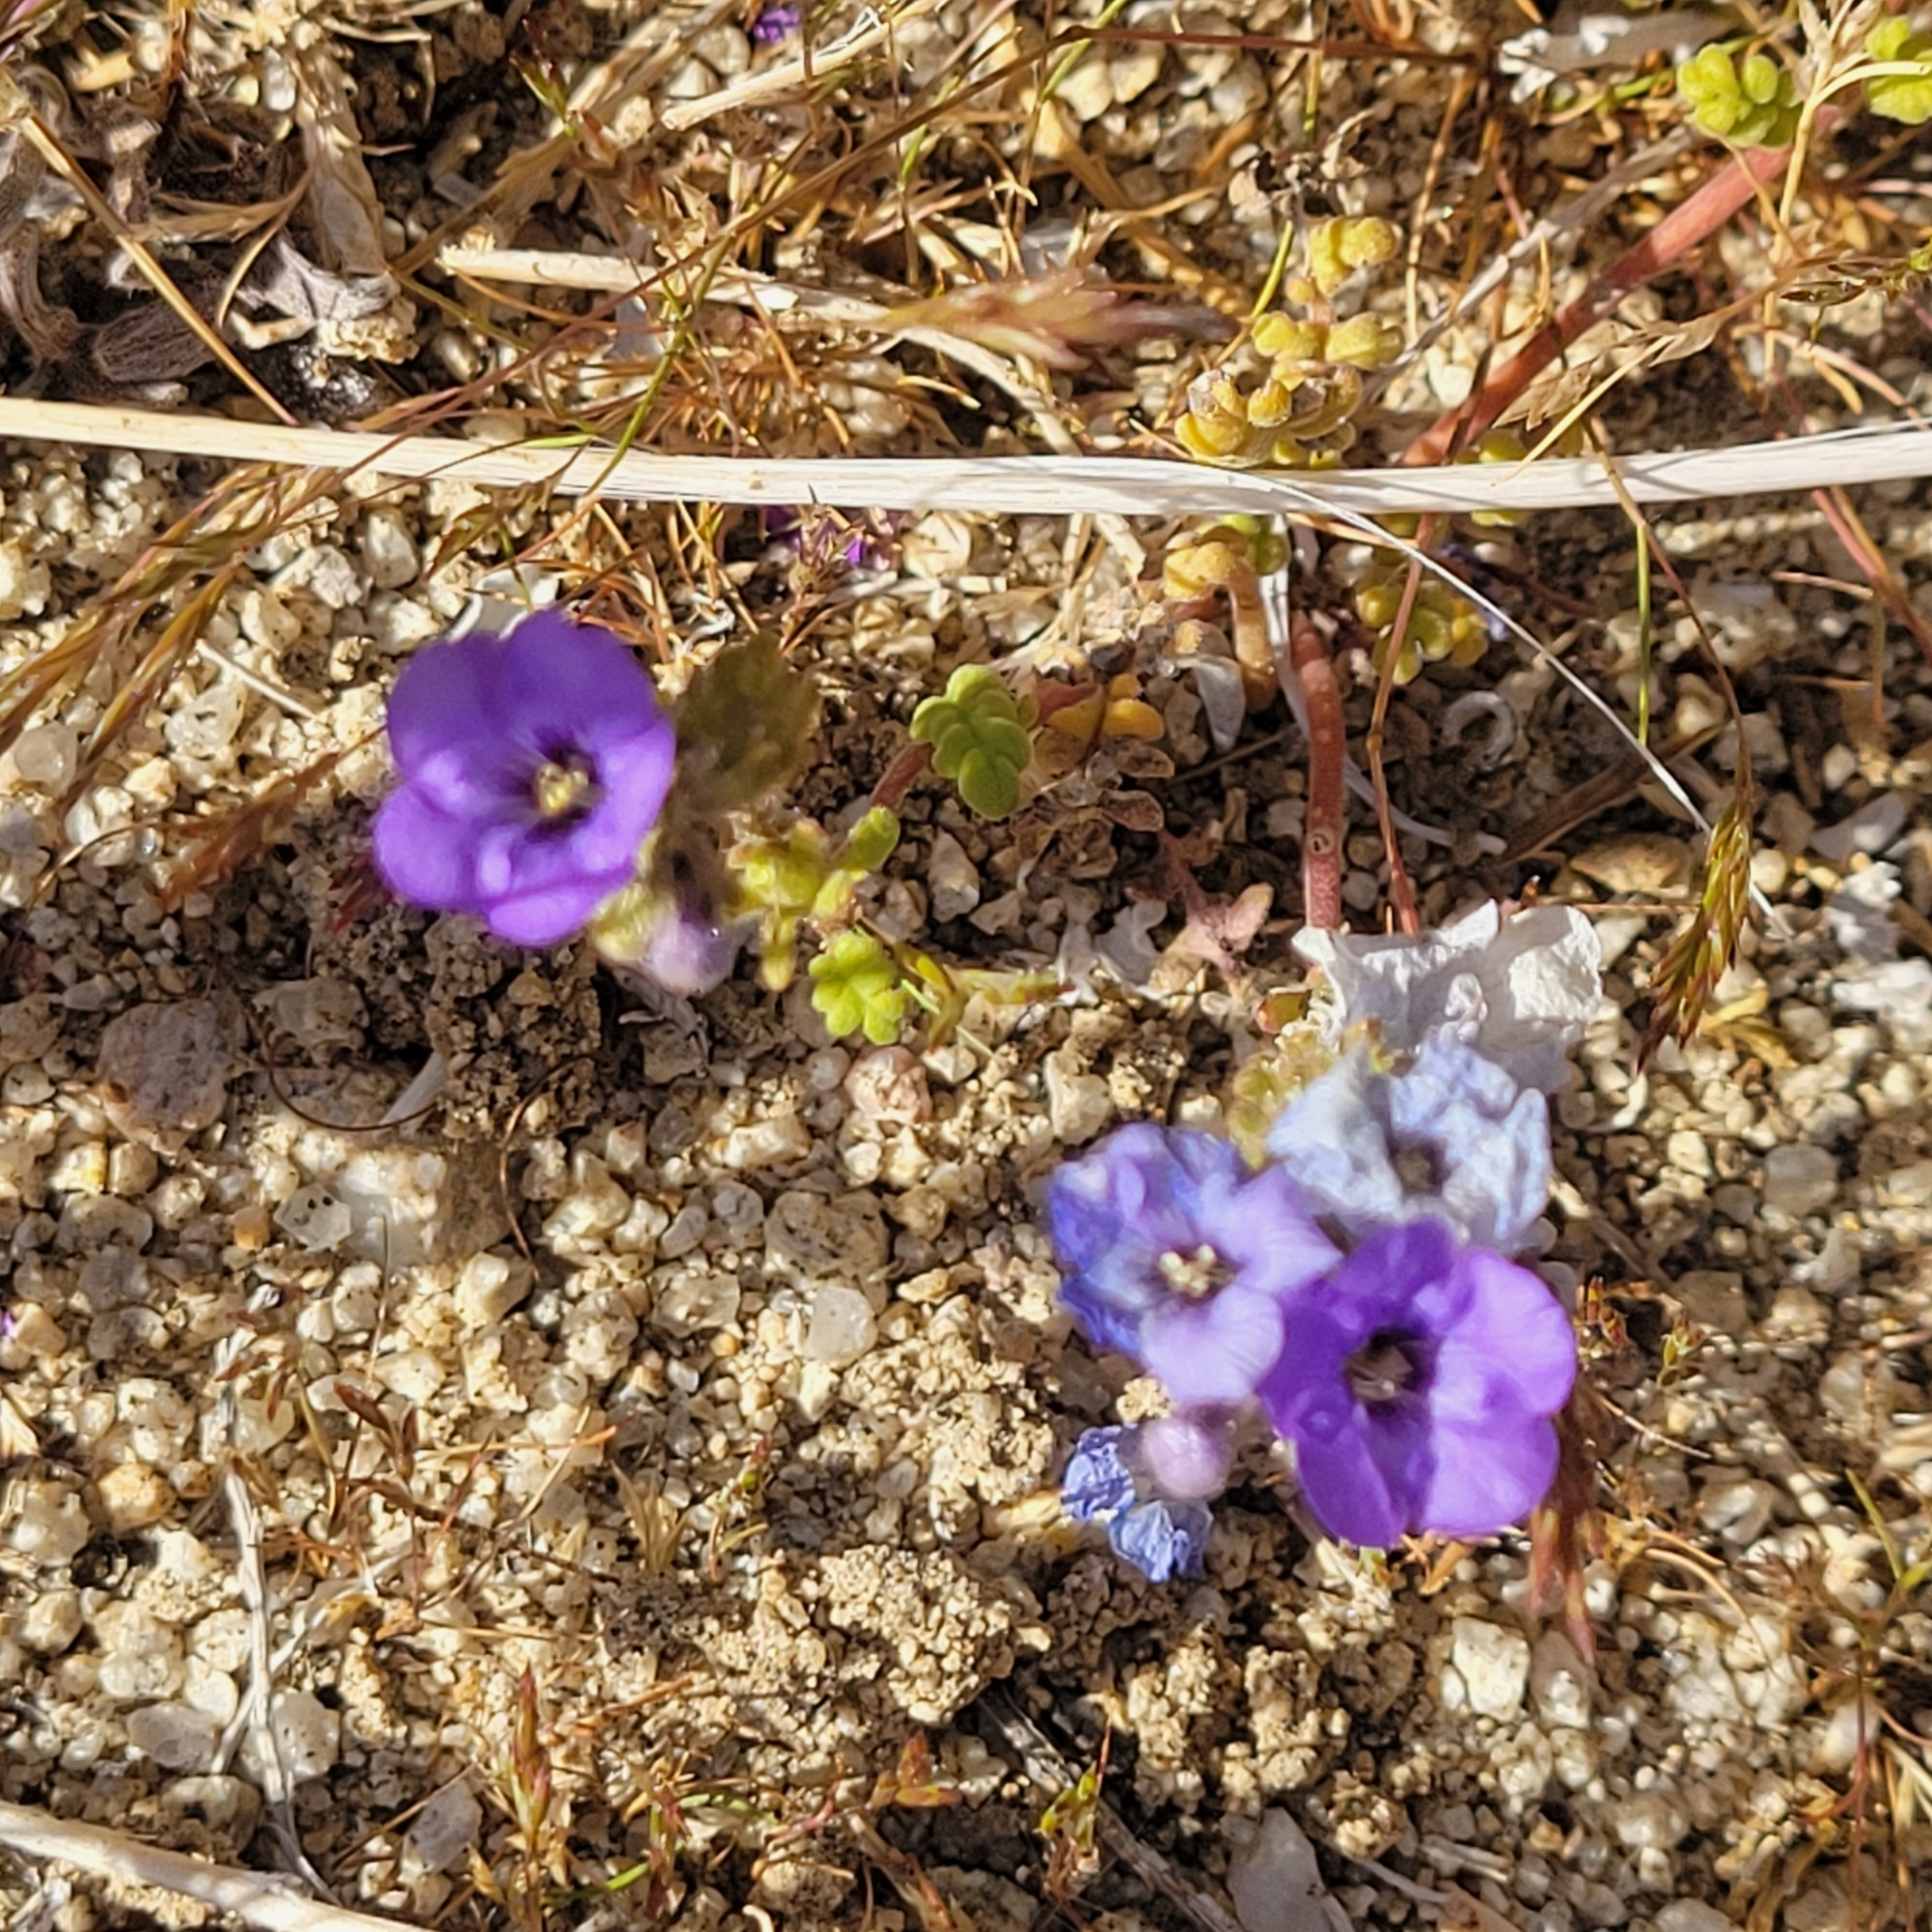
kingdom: Plantae
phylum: Tracheophyta
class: Magnoliopsida
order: Boraginales
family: Hydrophyllaceae
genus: Phacelia
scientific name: Phacelia fremontii
